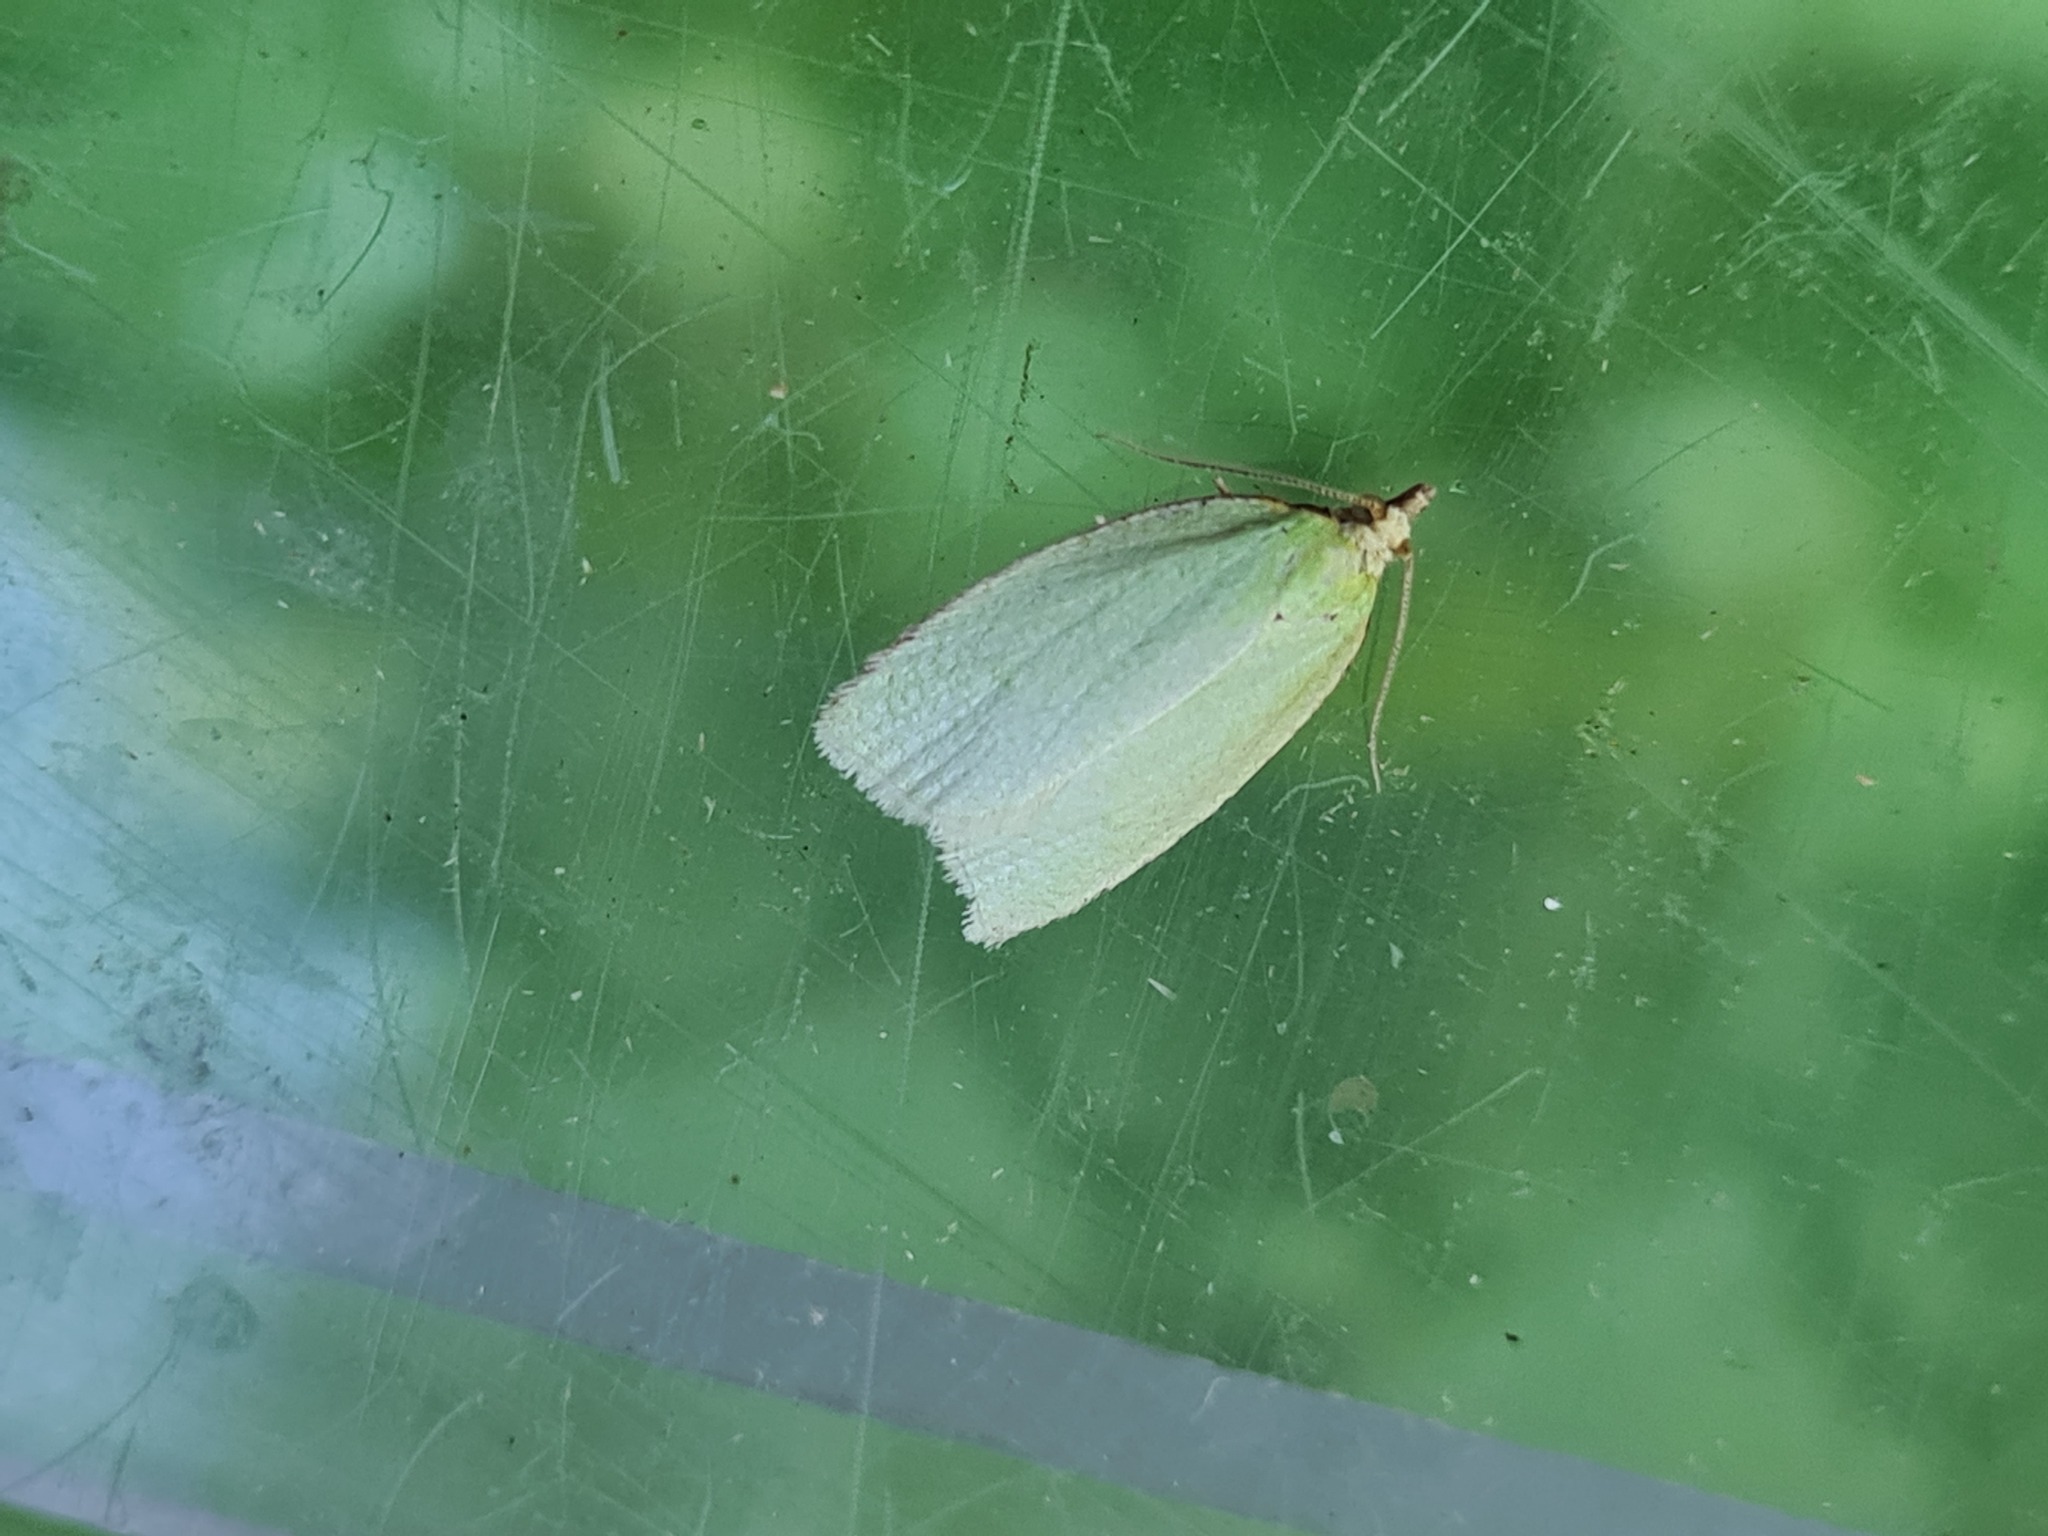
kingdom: Animalia
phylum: Arthropoda
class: Insecta
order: Lepidoptera
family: Tortricidae
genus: Tortrix
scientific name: Tortrix viridana
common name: Green oak tortrix
